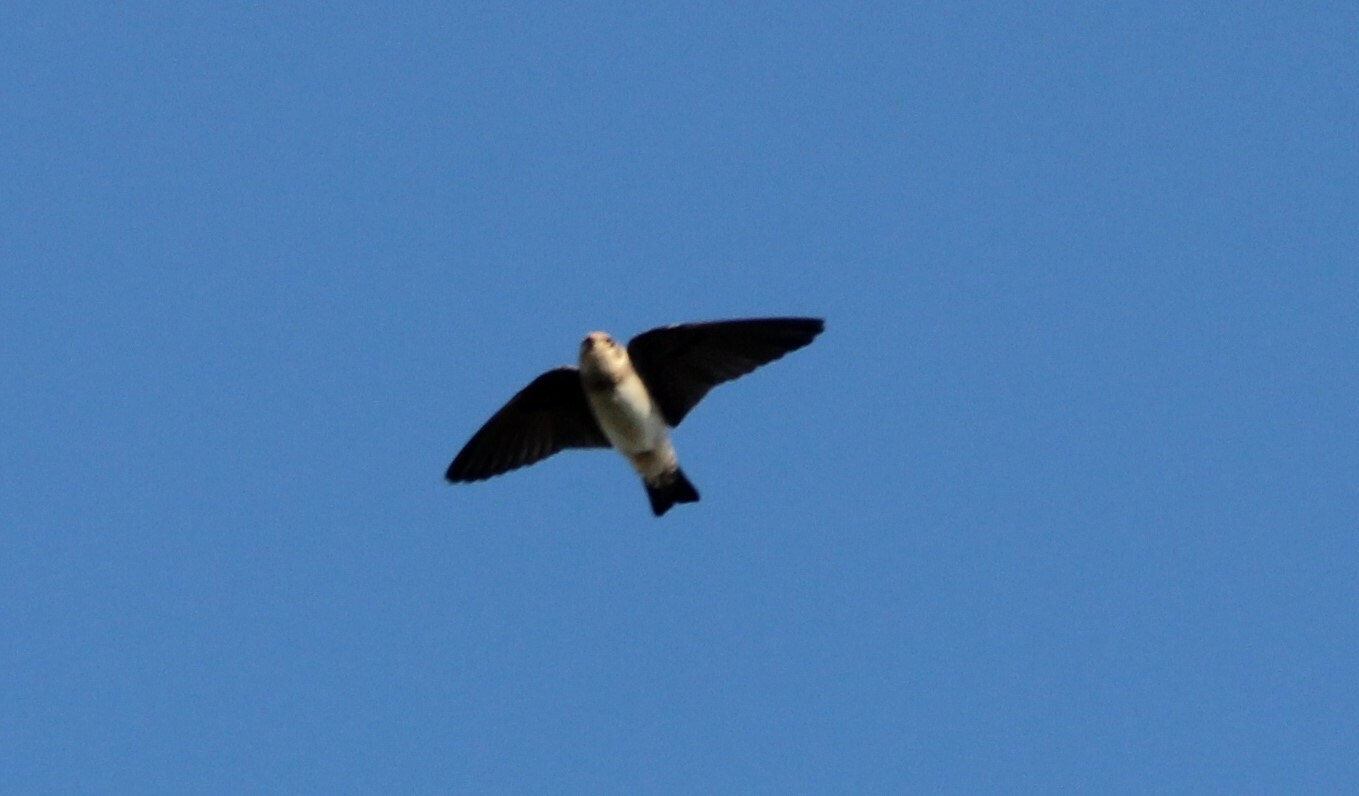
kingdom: Animalia
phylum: Chordata
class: Aves
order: Passeriformes
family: Hirundinidae
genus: Petrochelidon
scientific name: Petrochelidon fulva
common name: Cave swallow
